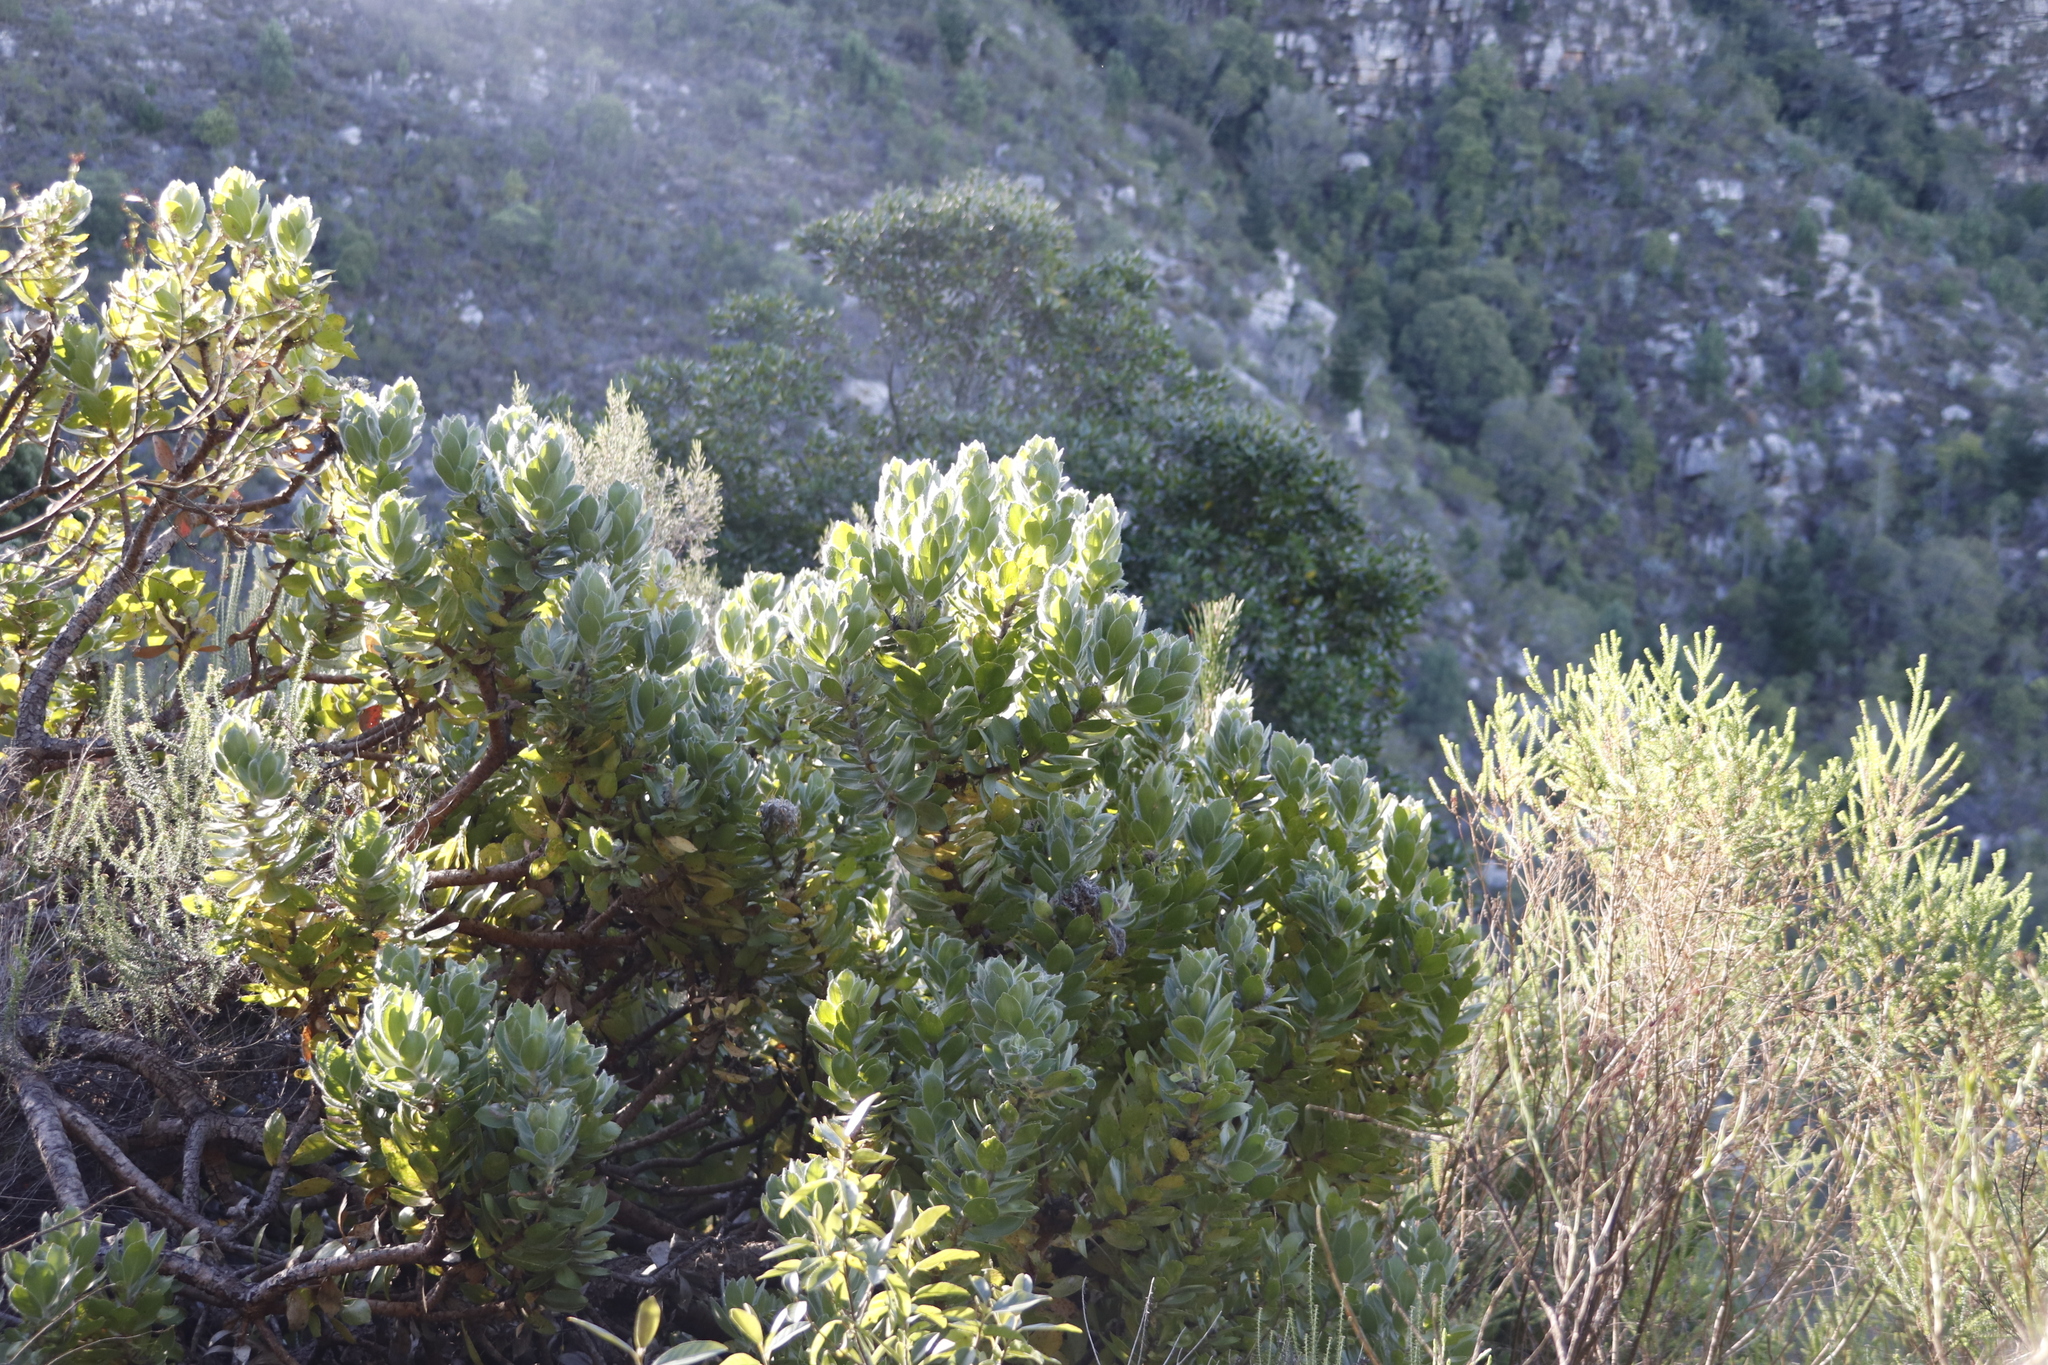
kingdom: Plantae
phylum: Tracheophyta
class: Magnoliopsida
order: Proteales
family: Proteaceae
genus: Leucospermum
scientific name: Leucospermum conocarpodendron
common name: Tree pincushion
